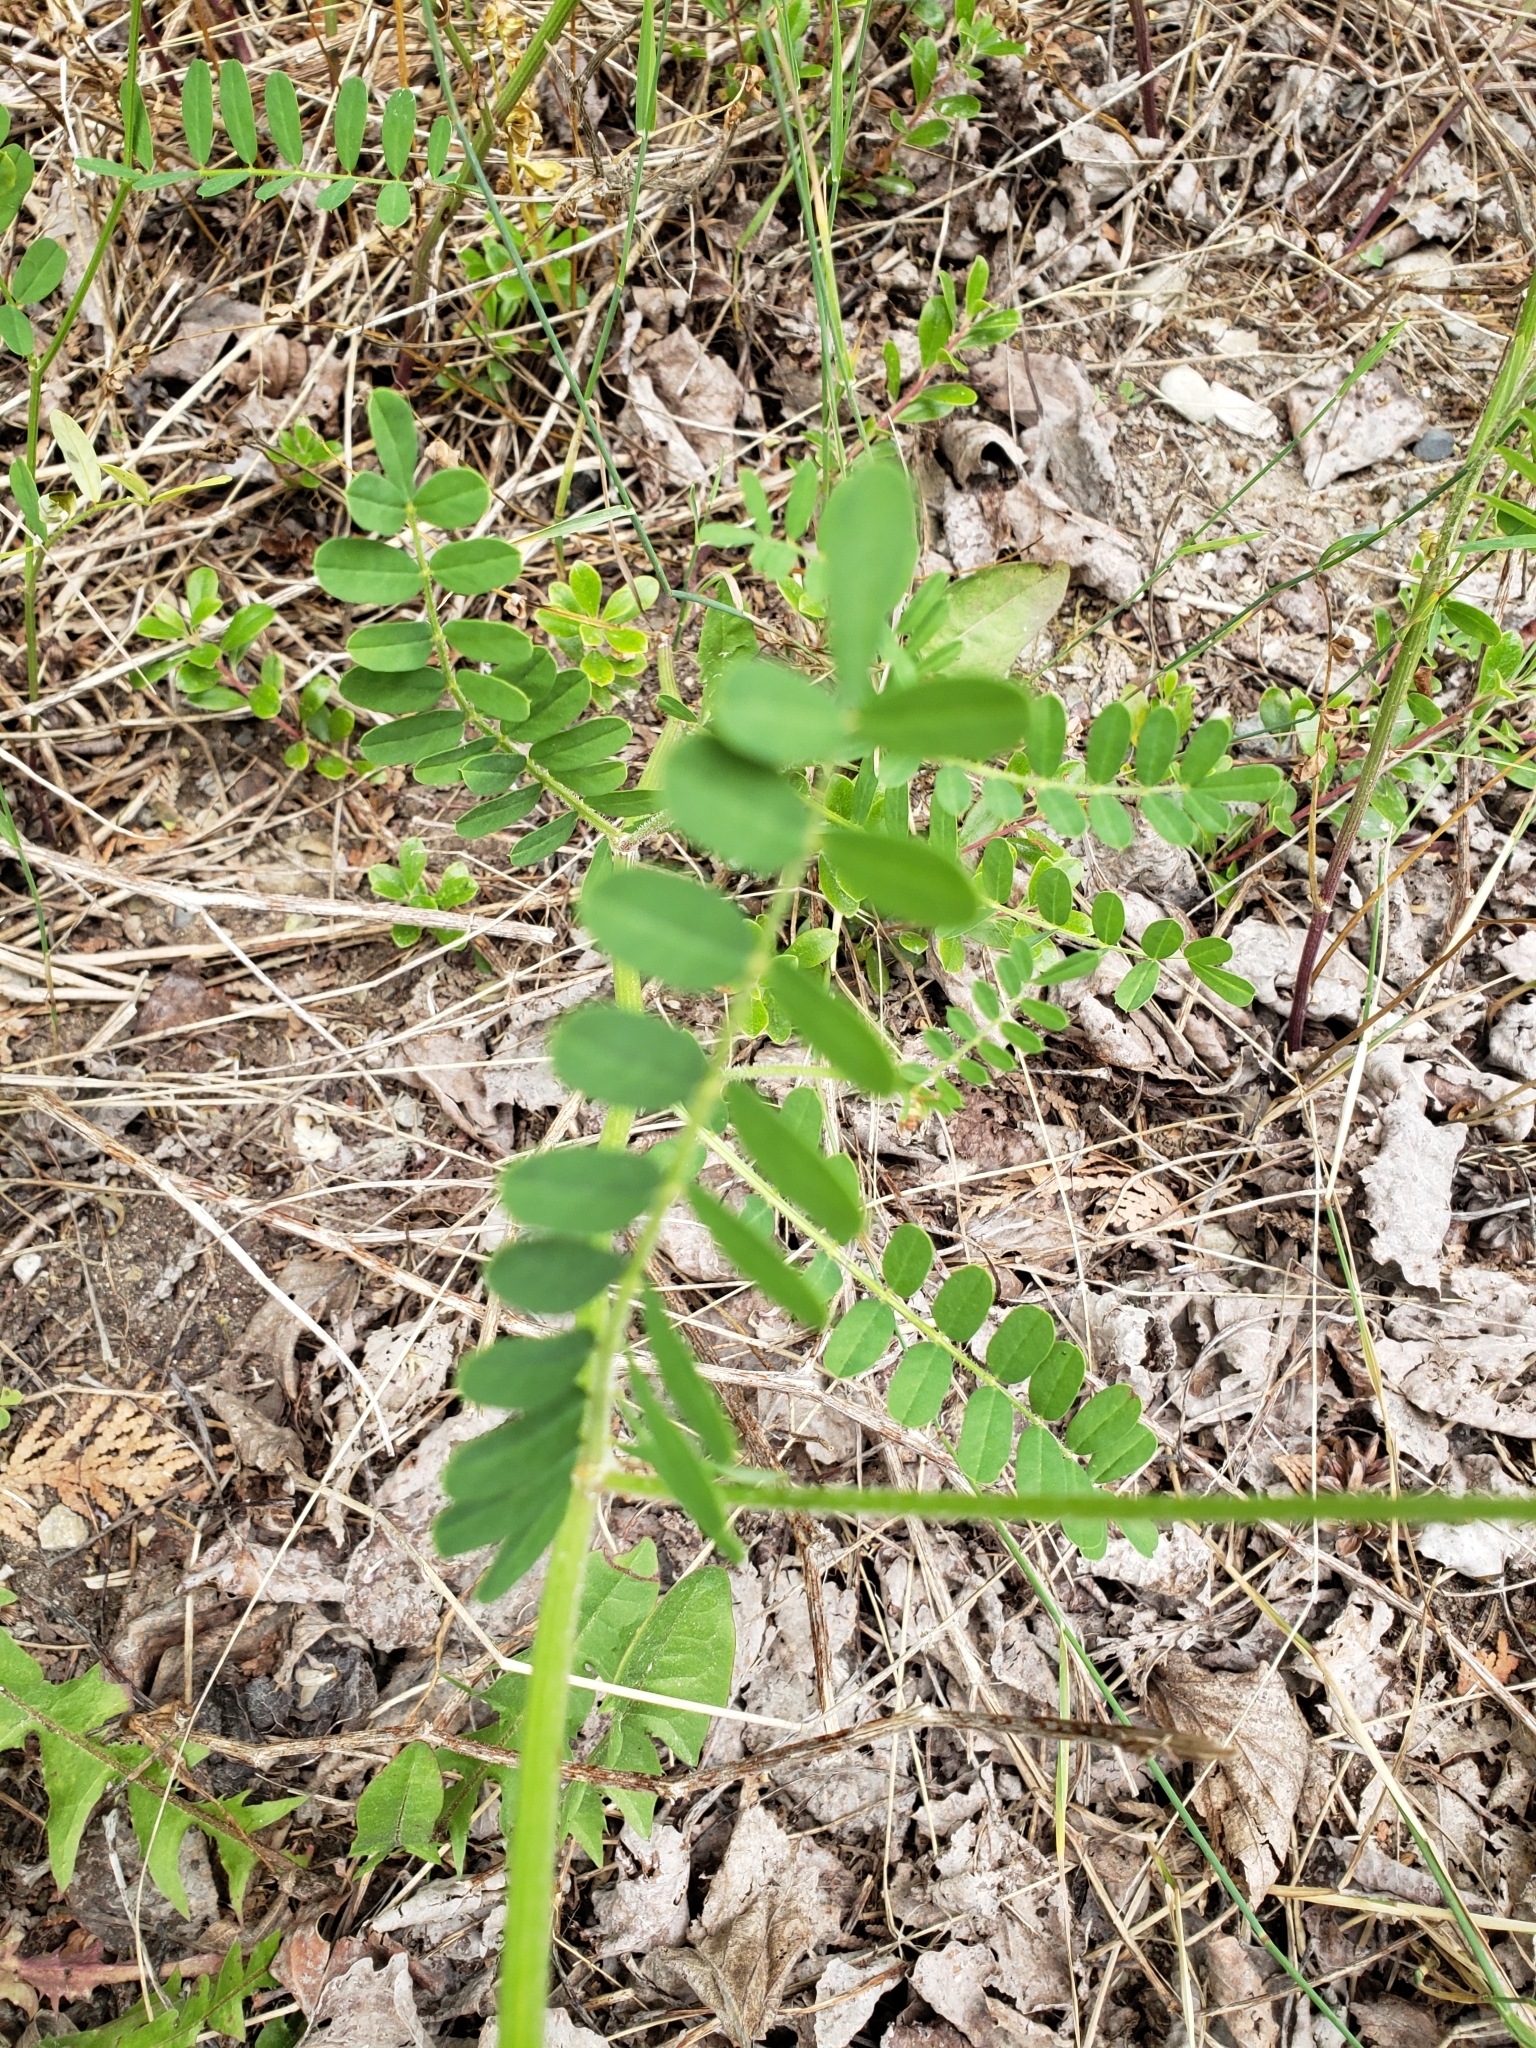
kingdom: Plantae
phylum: Tracheophyta
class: Magnoliopsida
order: Fabales
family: Fabaceae
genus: Coronilla
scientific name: Coronilla varia
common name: Crownvetch
